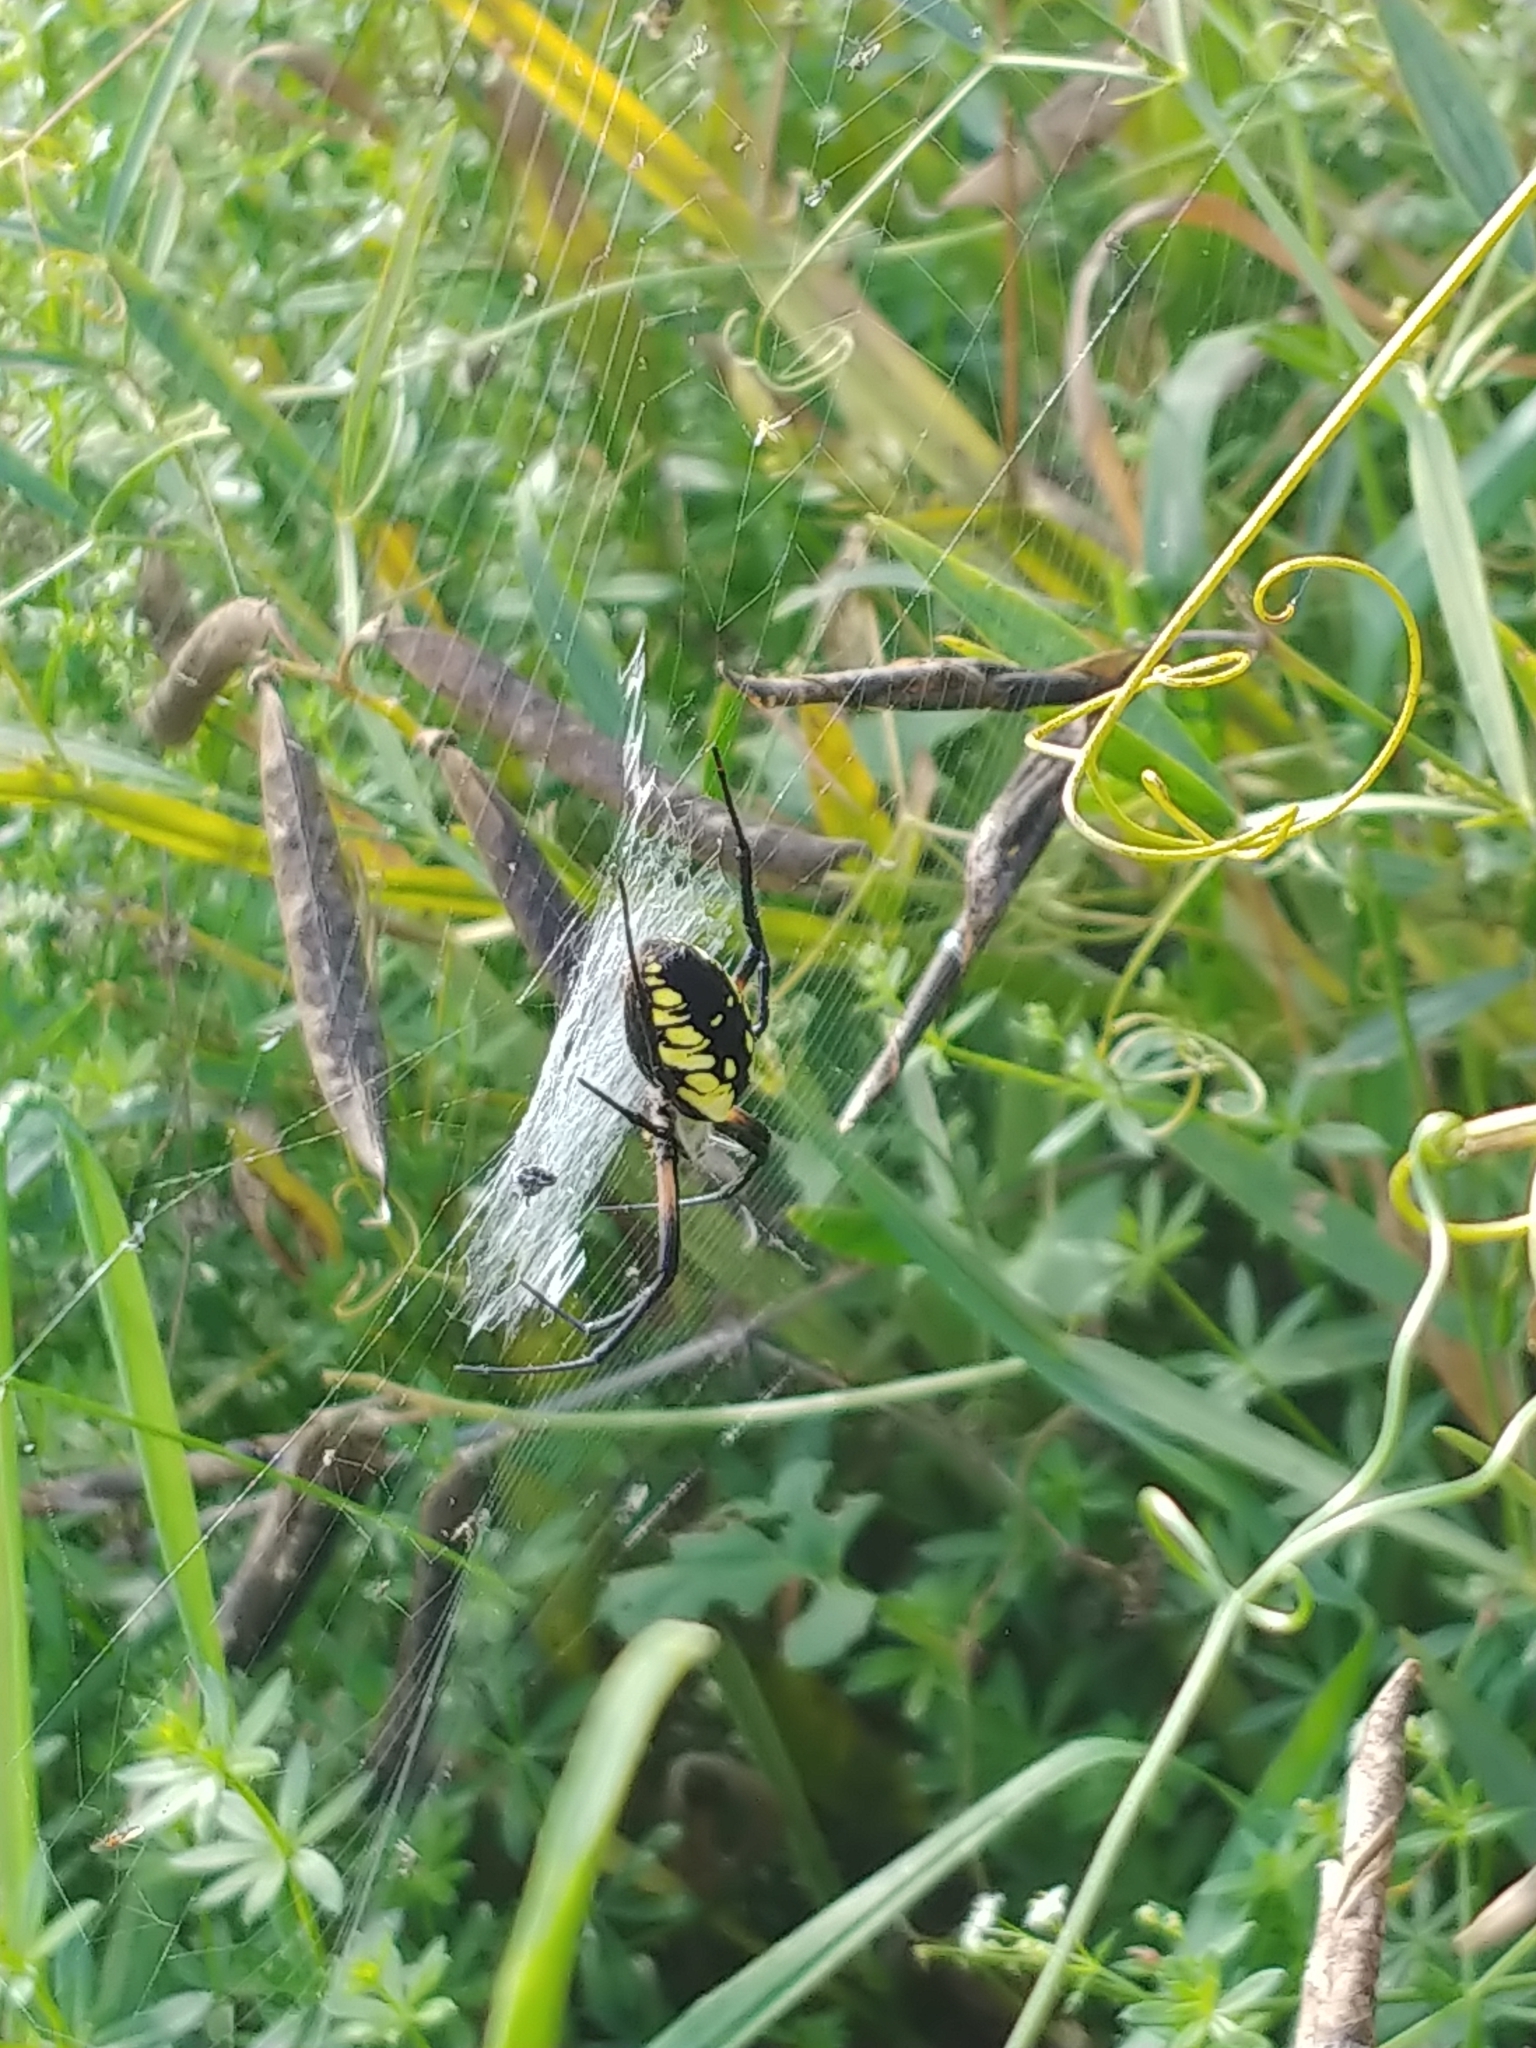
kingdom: Animalia
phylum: Arthropoda
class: Arachnida
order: Araneae
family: Araneidae
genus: Argiope
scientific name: Argiope aurantia
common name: Orb weavers
